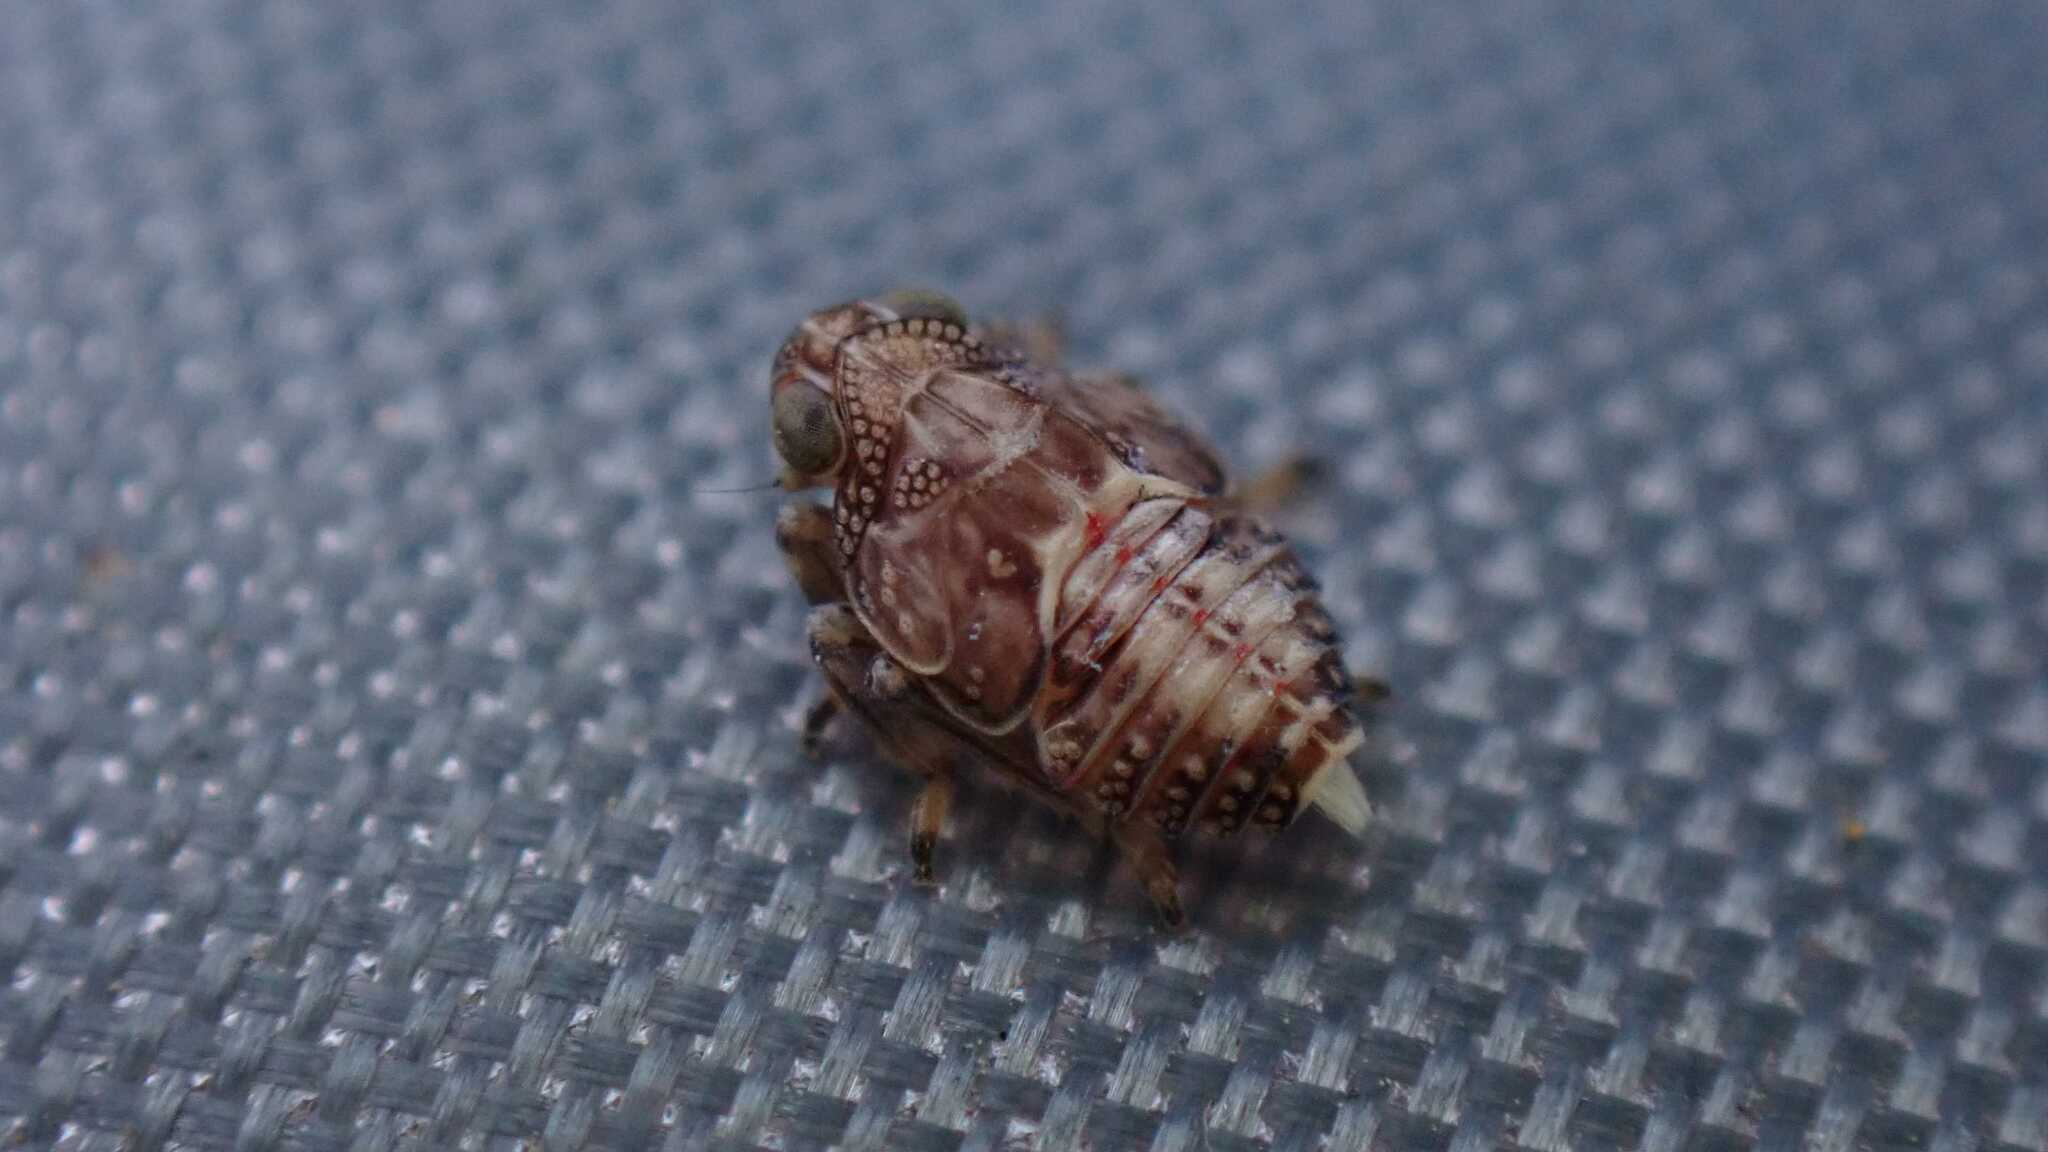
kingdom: Animalia
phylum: Arthropoda
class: Insecta
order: Hemiptera
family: Issidae
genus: Issus
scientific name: Issus
